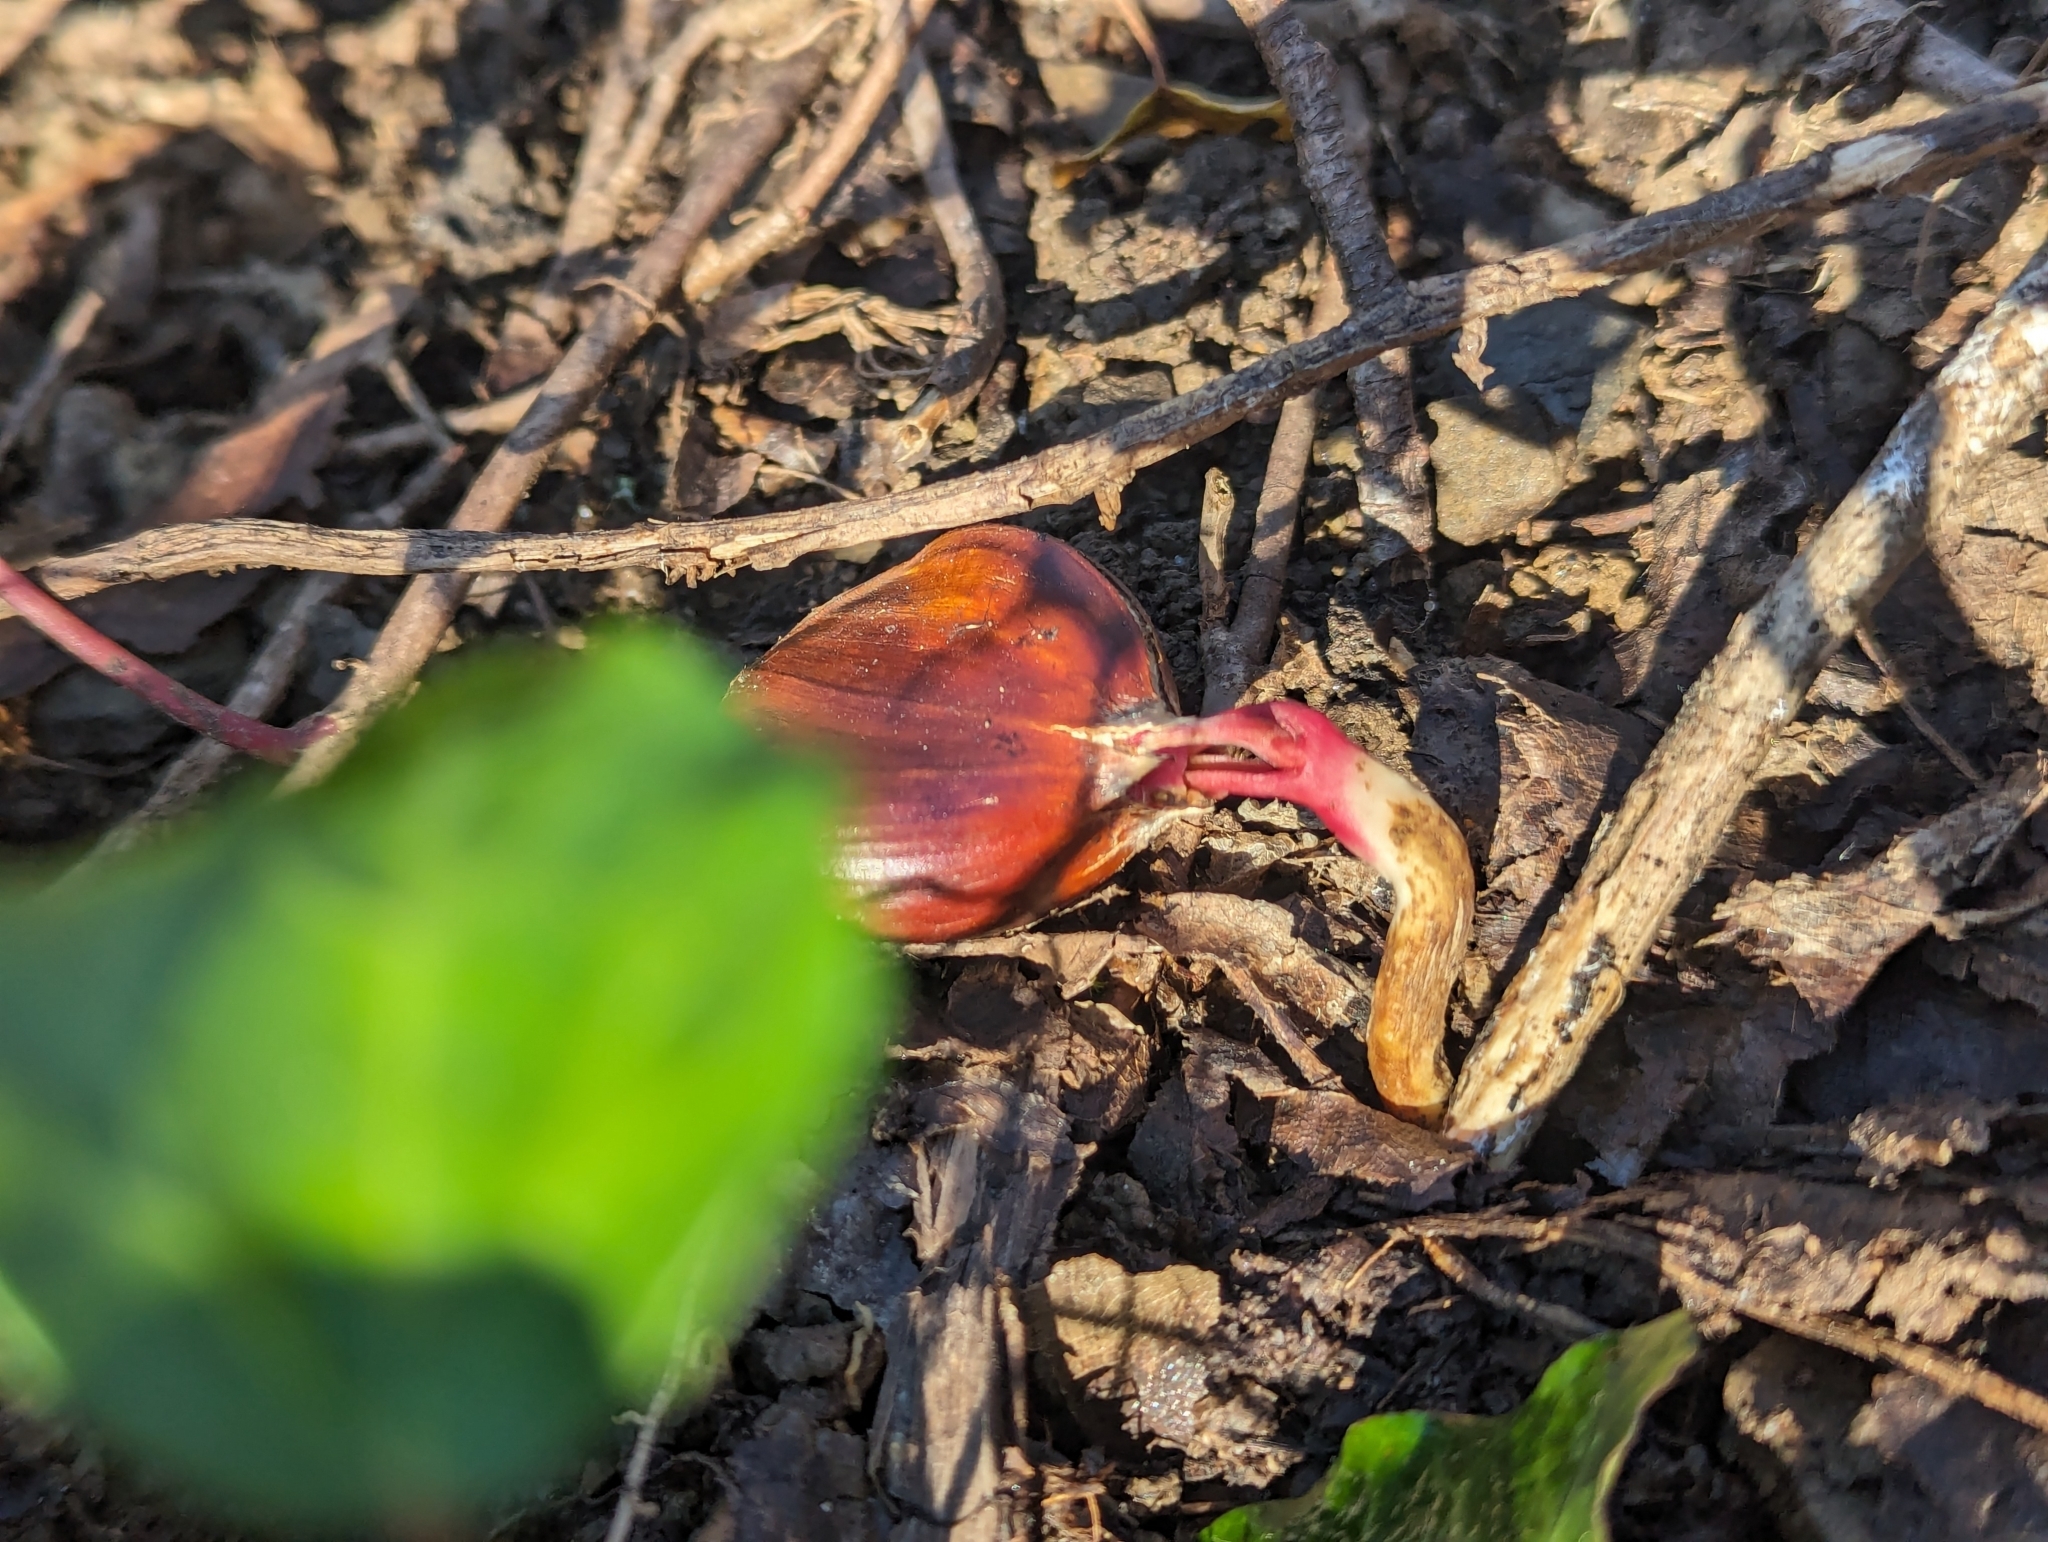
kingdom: Plantae
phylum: Tracheophyta
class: Magnoliopsida
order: Fagales
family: Fagaceae
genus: Castanea
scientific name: Castanea sativa
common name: Sweet chestnut
